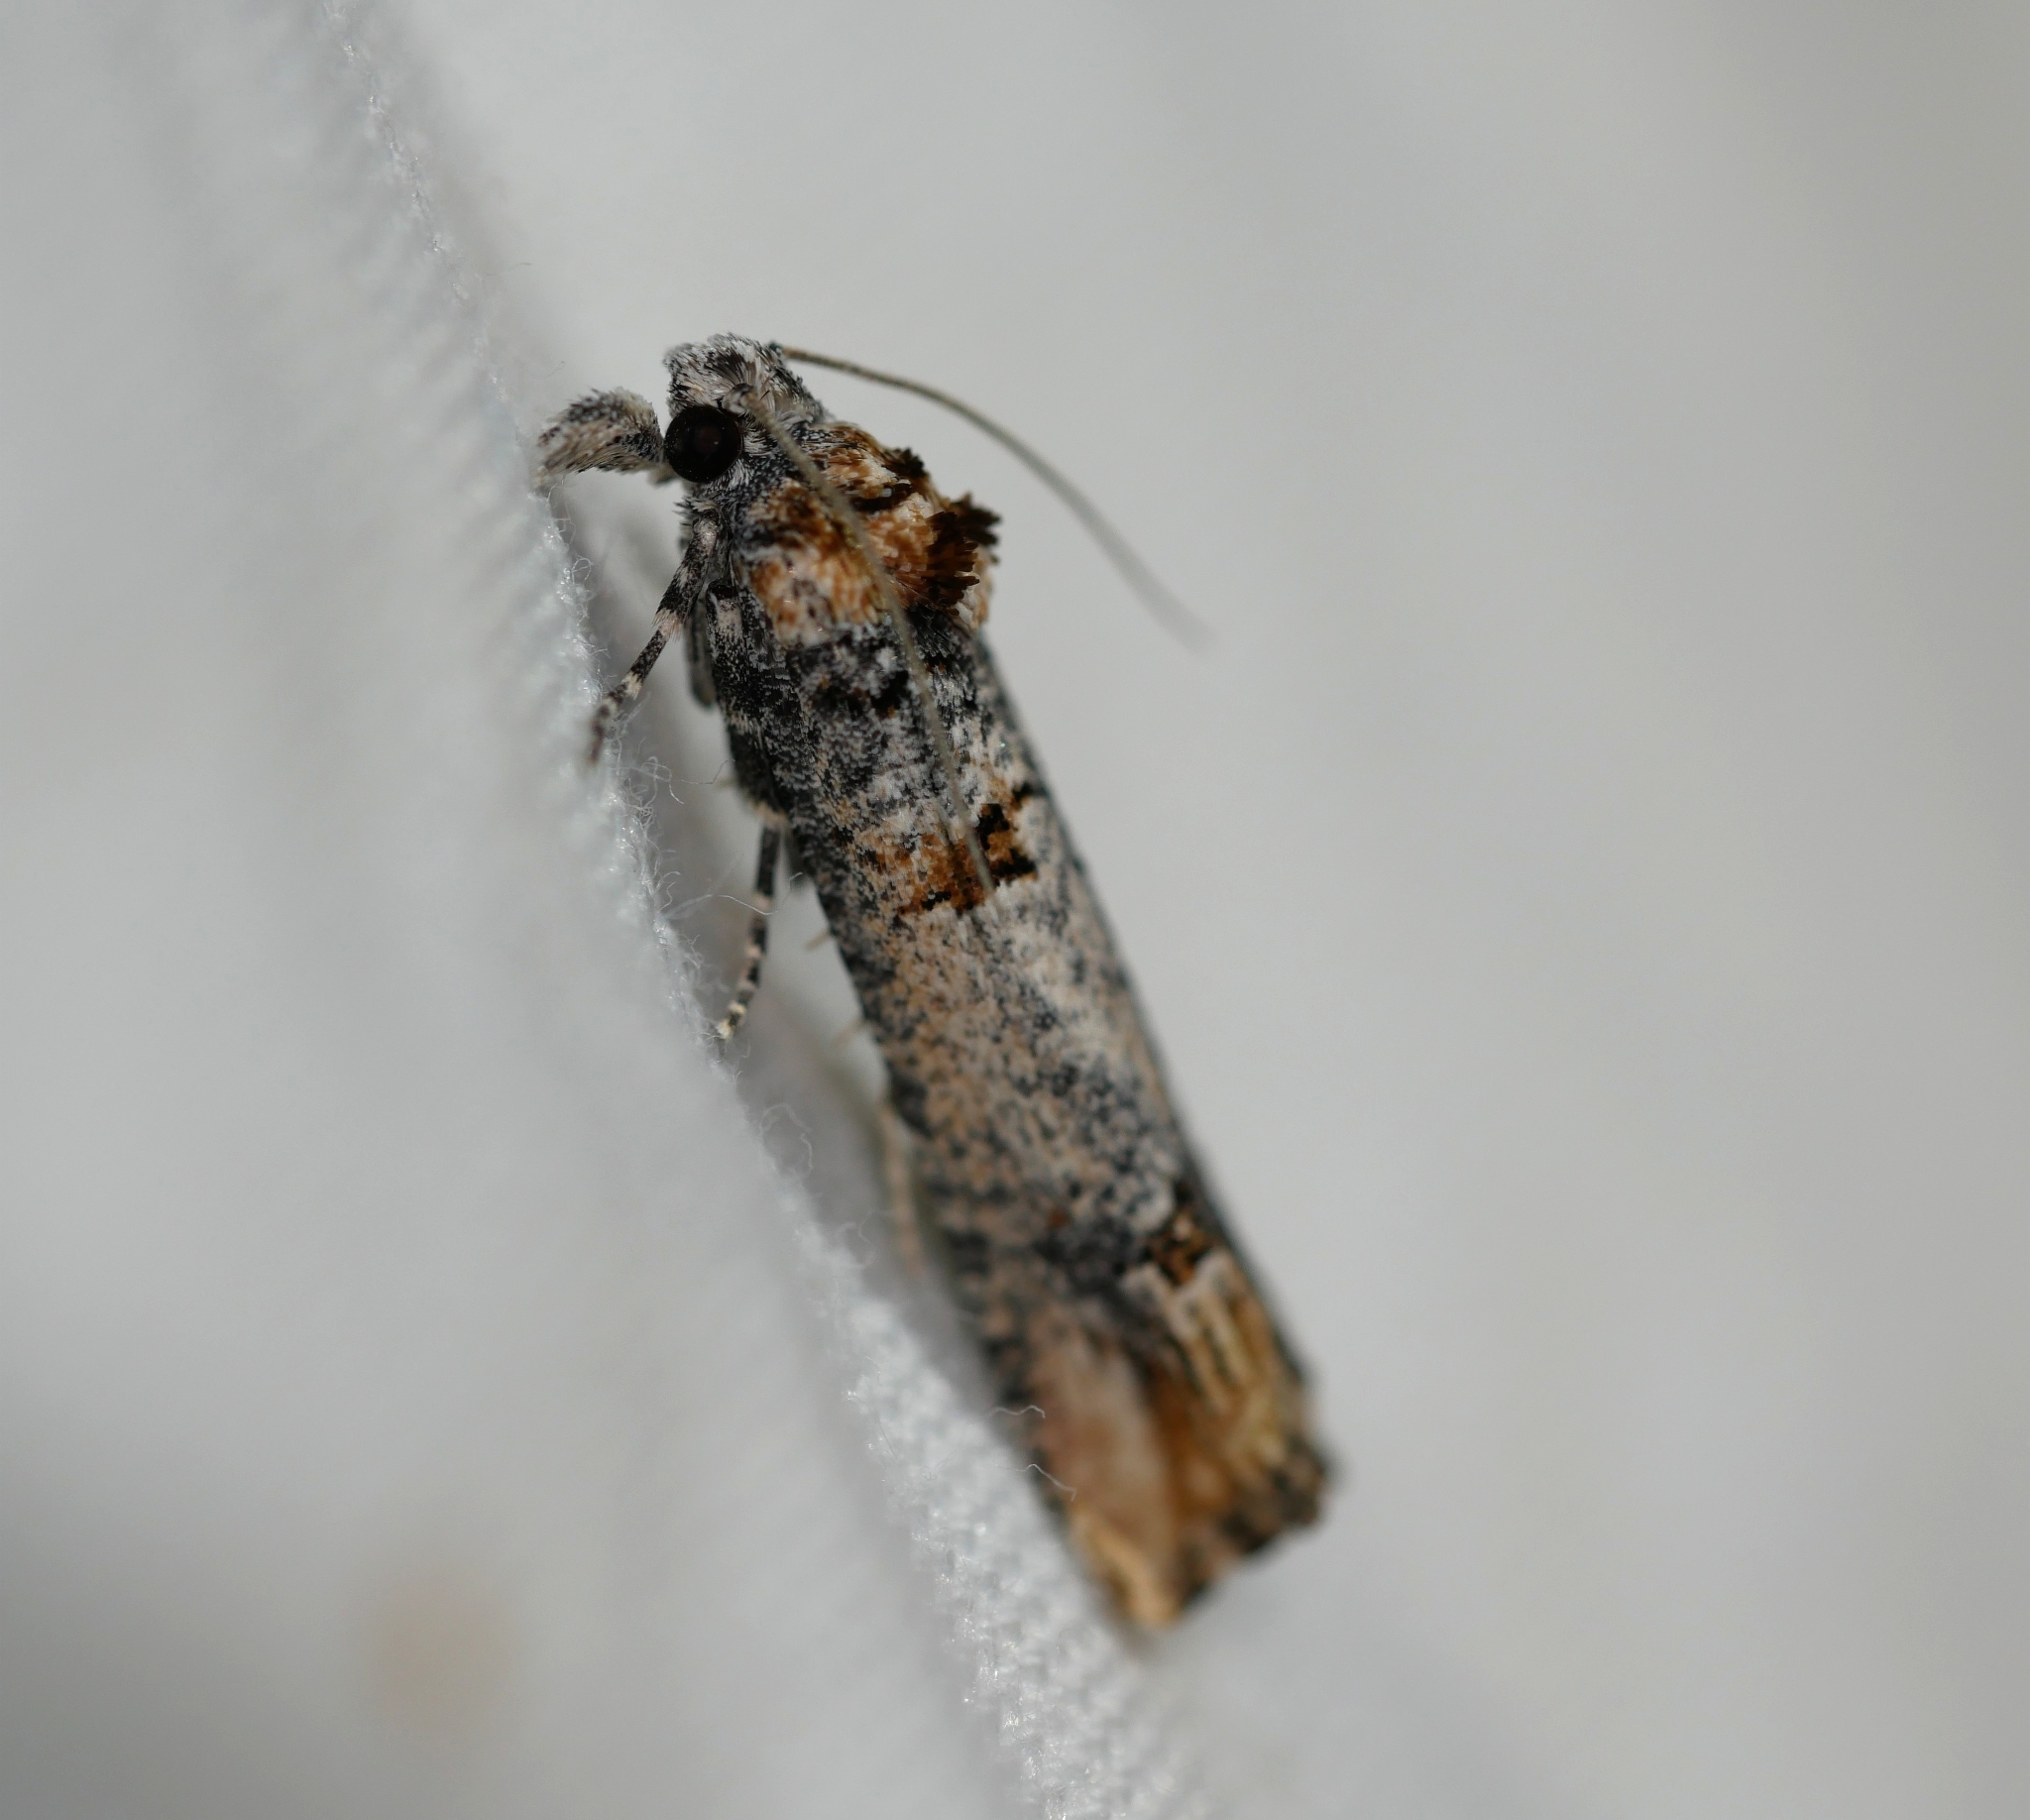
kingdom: Animalia
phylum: Arthropoda
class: Insecta
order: Lepidoptera
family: Tortricidae
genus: Eucosma
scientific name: Eucosma bucephaloides
